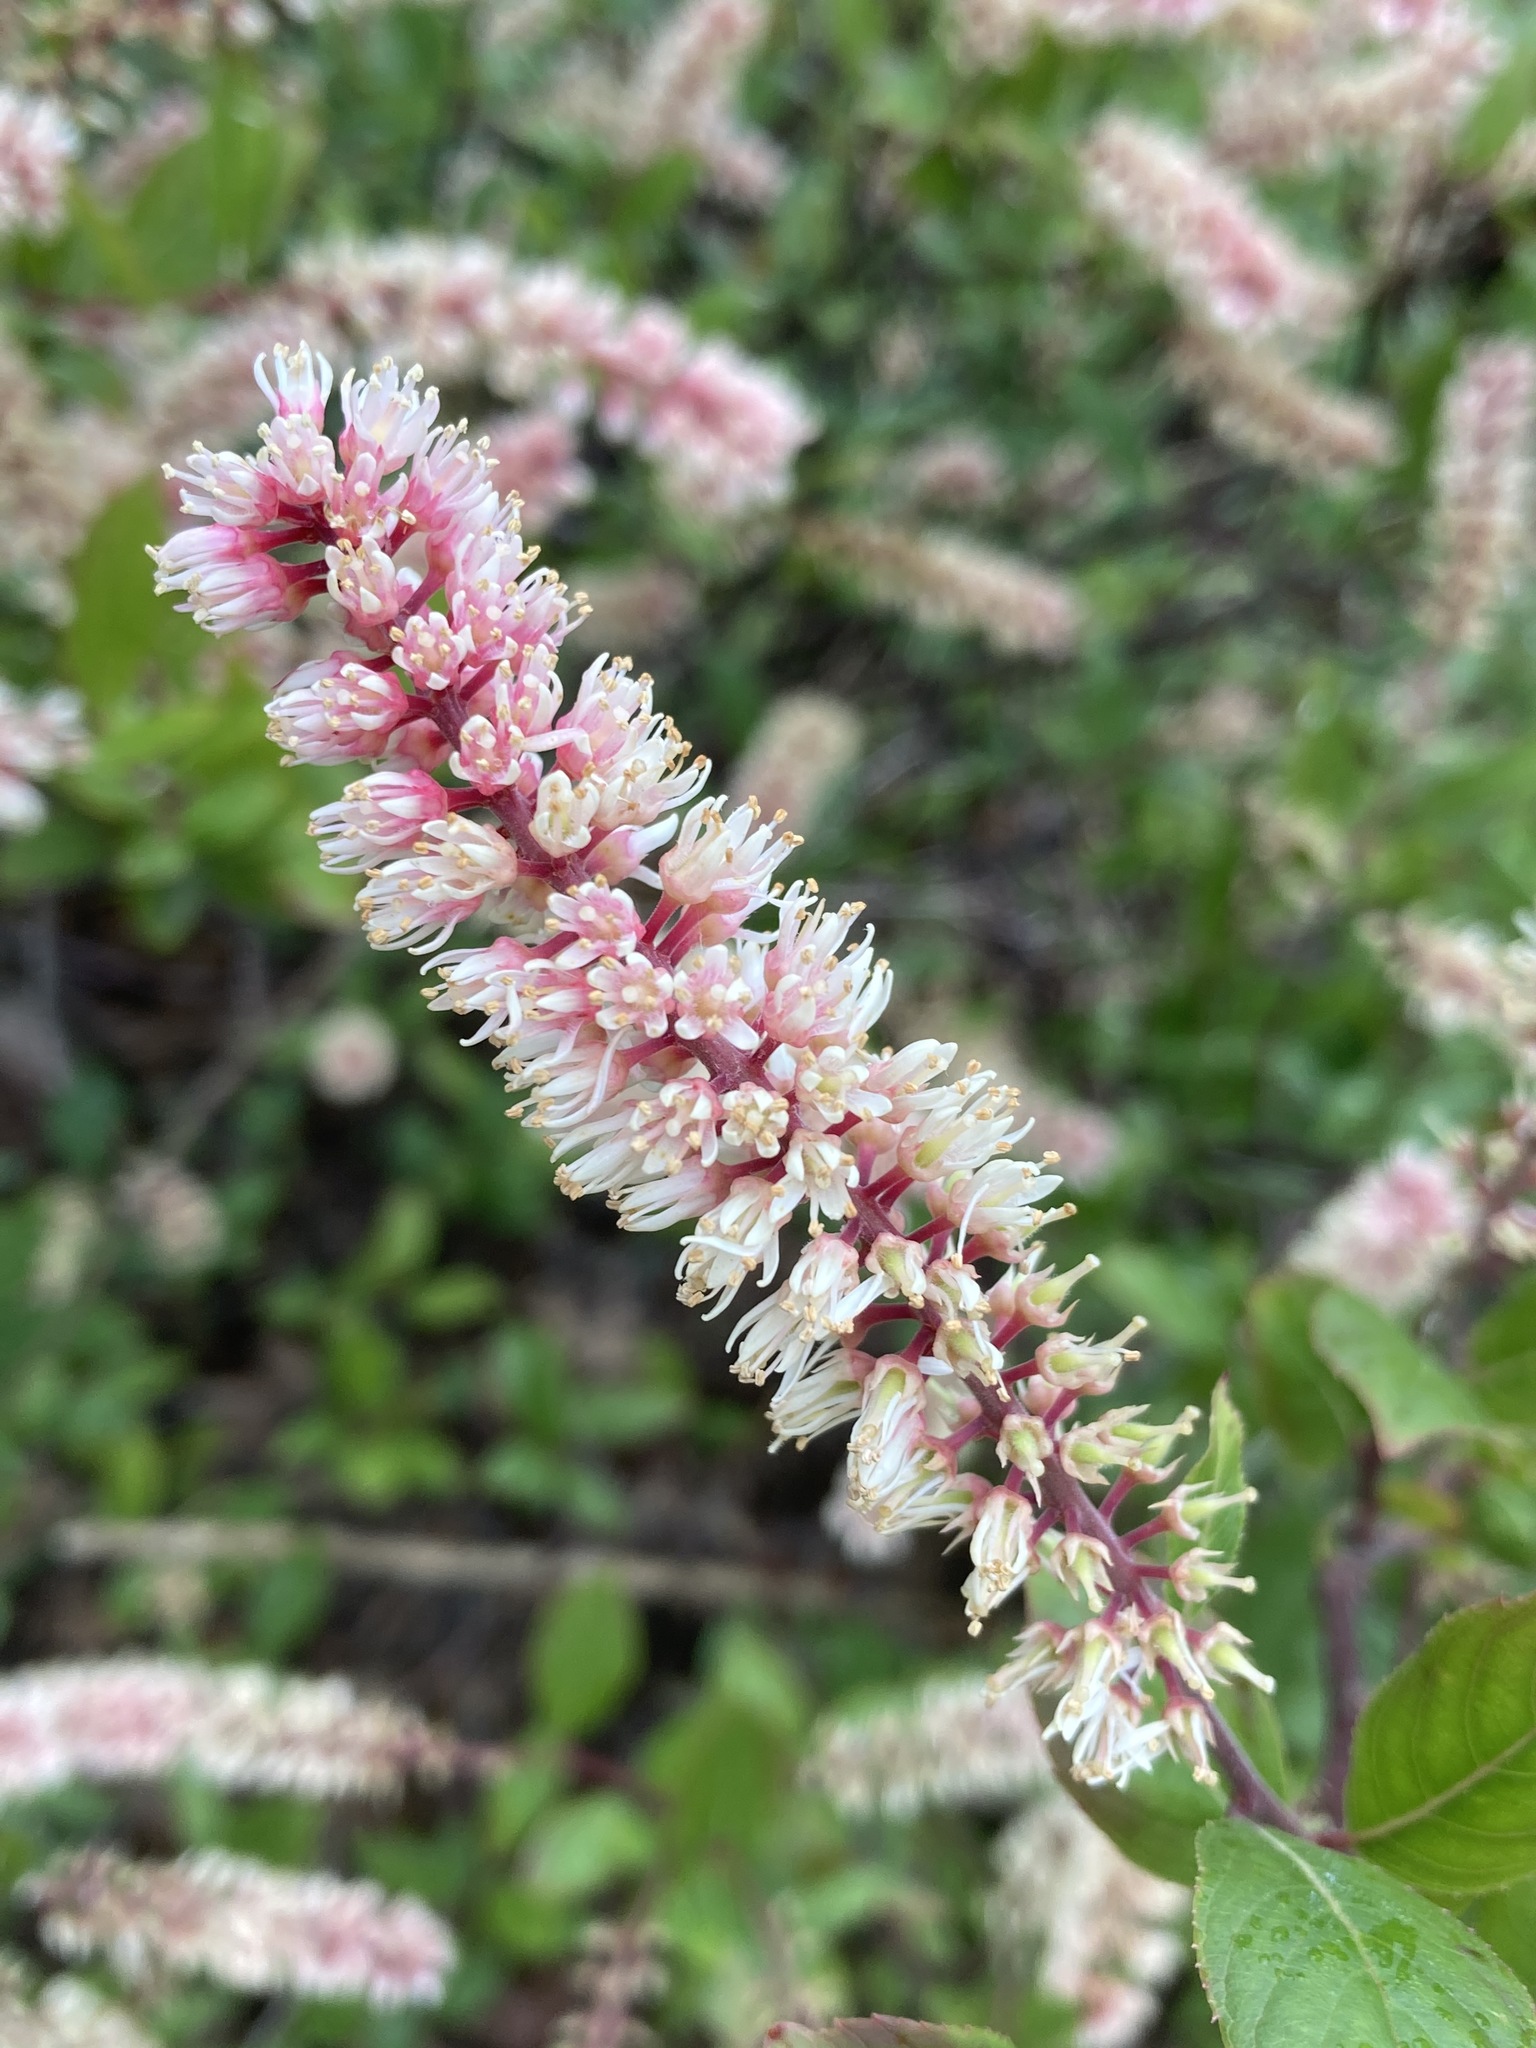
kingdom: Plantae
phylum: Tracheophyta
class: Magnoliopsida
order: Saxifragales
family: Iteaceae
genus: Itea
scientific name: Itea virginica
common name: Sweetspire
